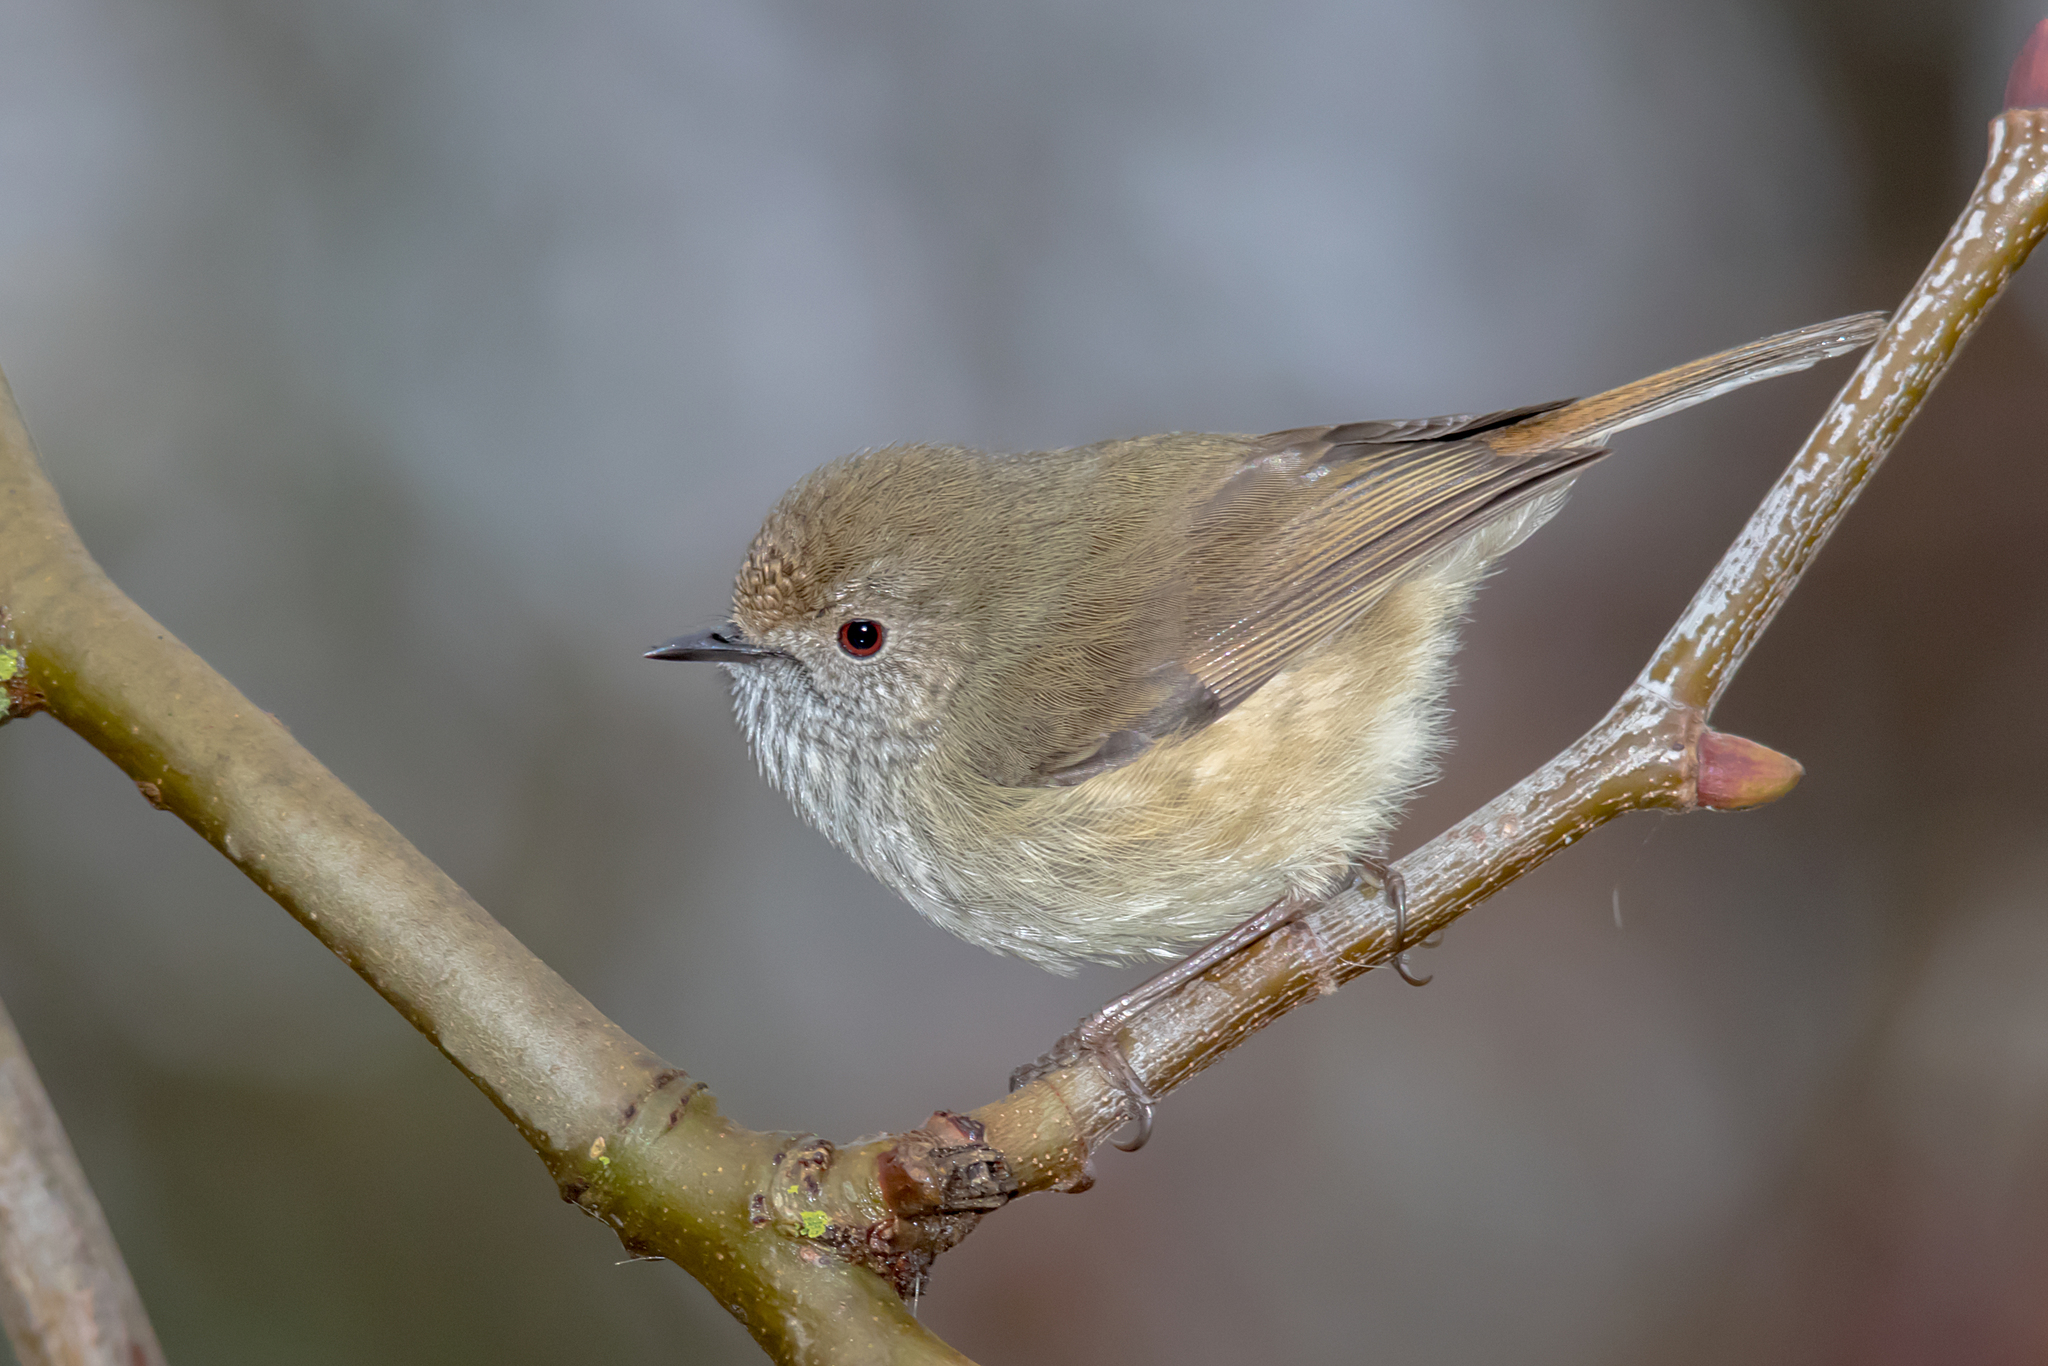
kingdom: Animalia
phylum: Chordata
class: Aves
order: Passeriformes
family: Acanthizidae
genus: Acanthiza
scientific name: Acanthiza pusilla
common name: Brown thornbill
